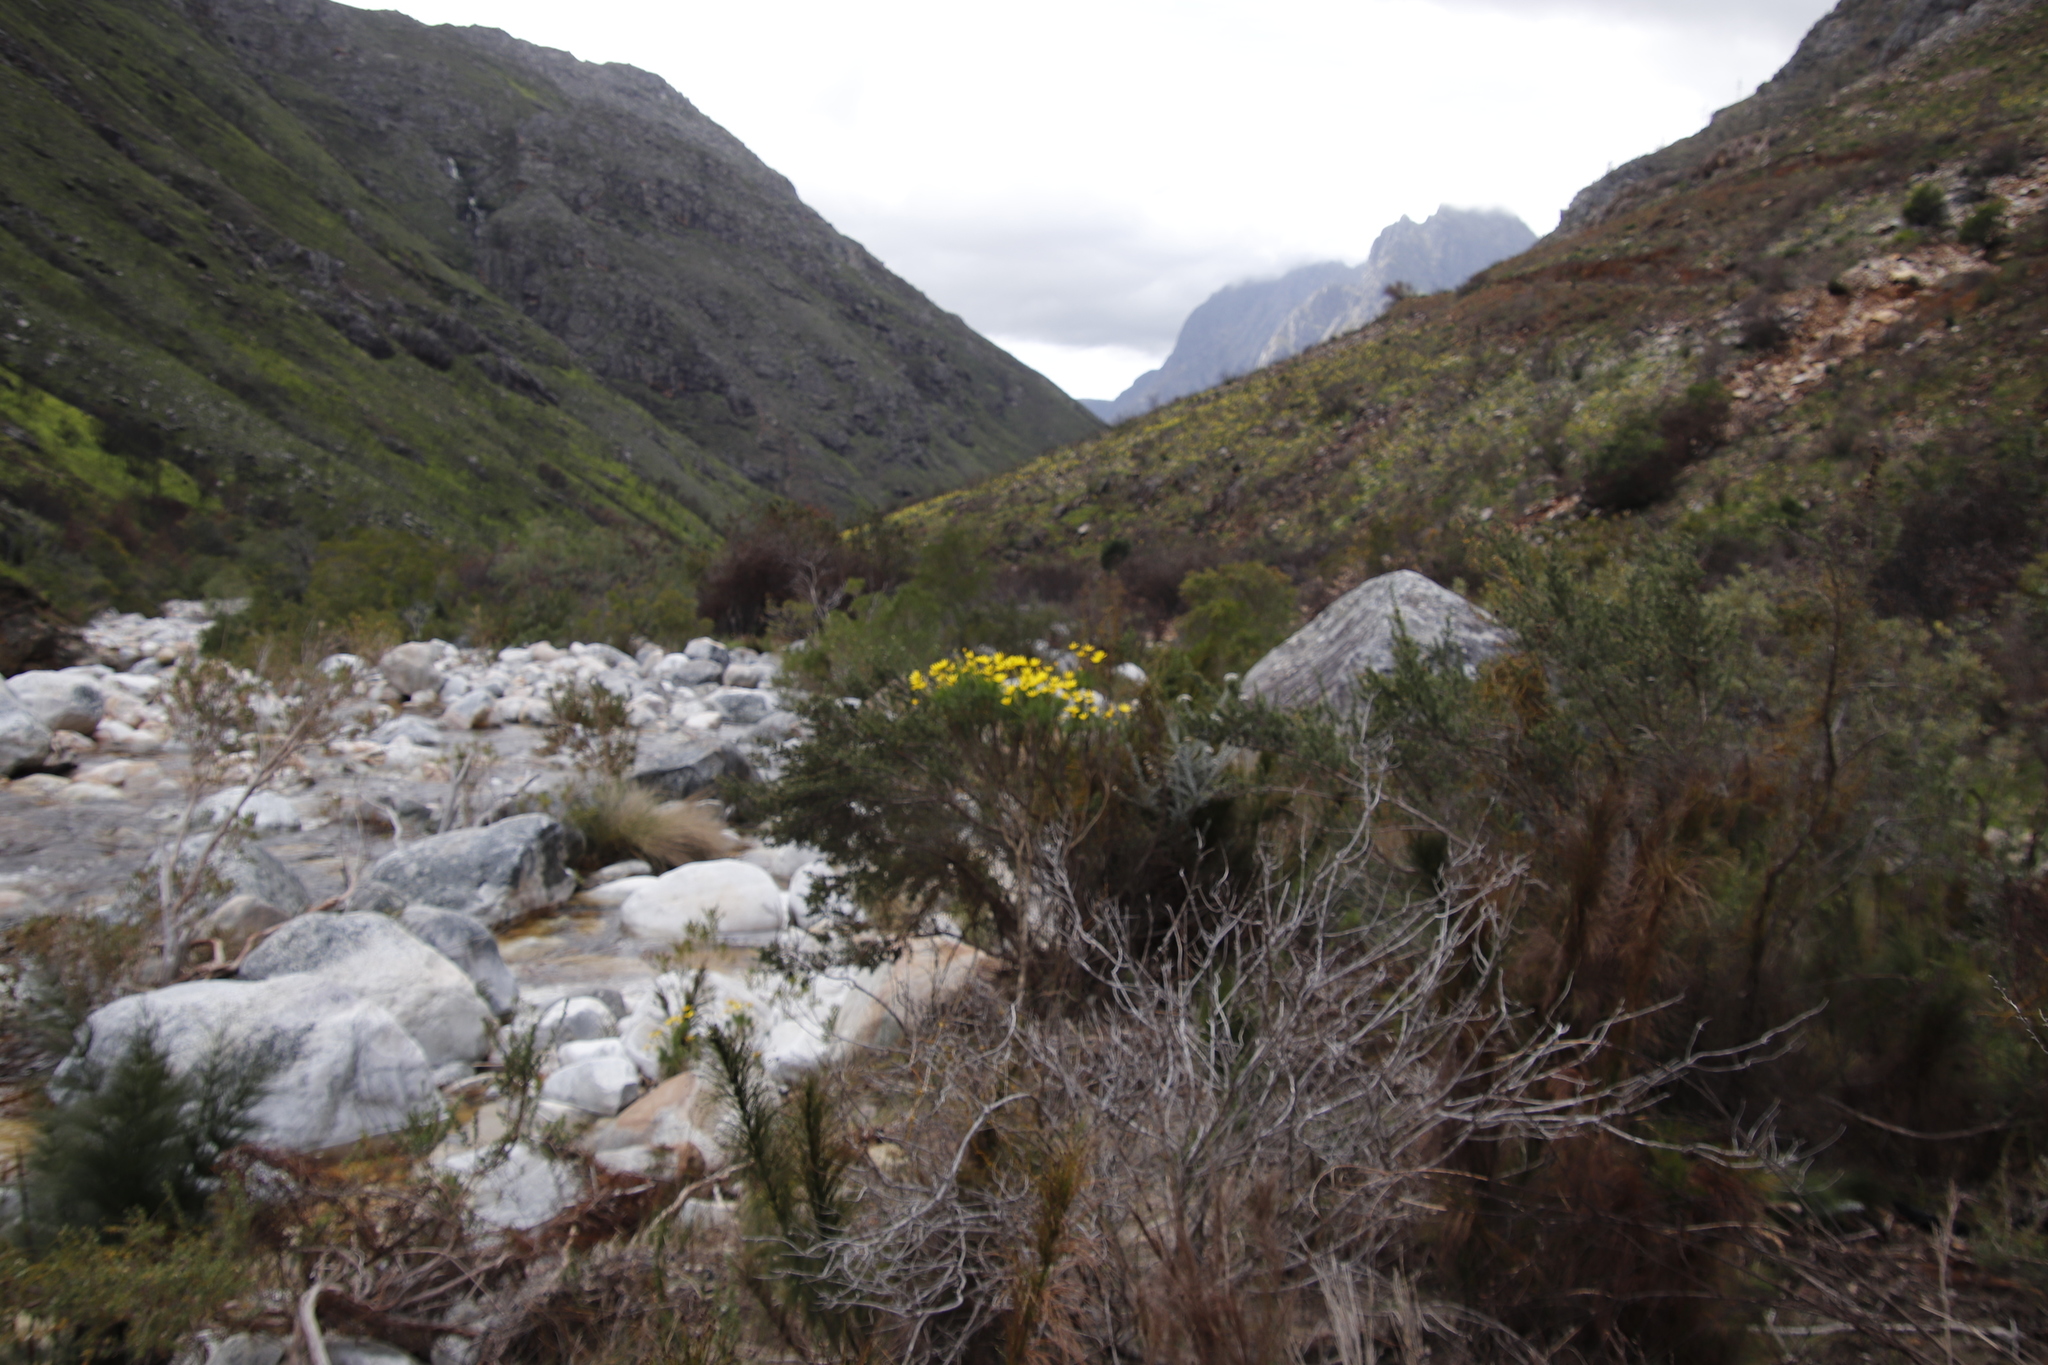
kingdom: Plantae
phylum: Tracheophyta
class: Magnoliopsida
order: Asterales
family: Asteraceae
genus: Euryops
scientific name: Euryops abrotanifolius
